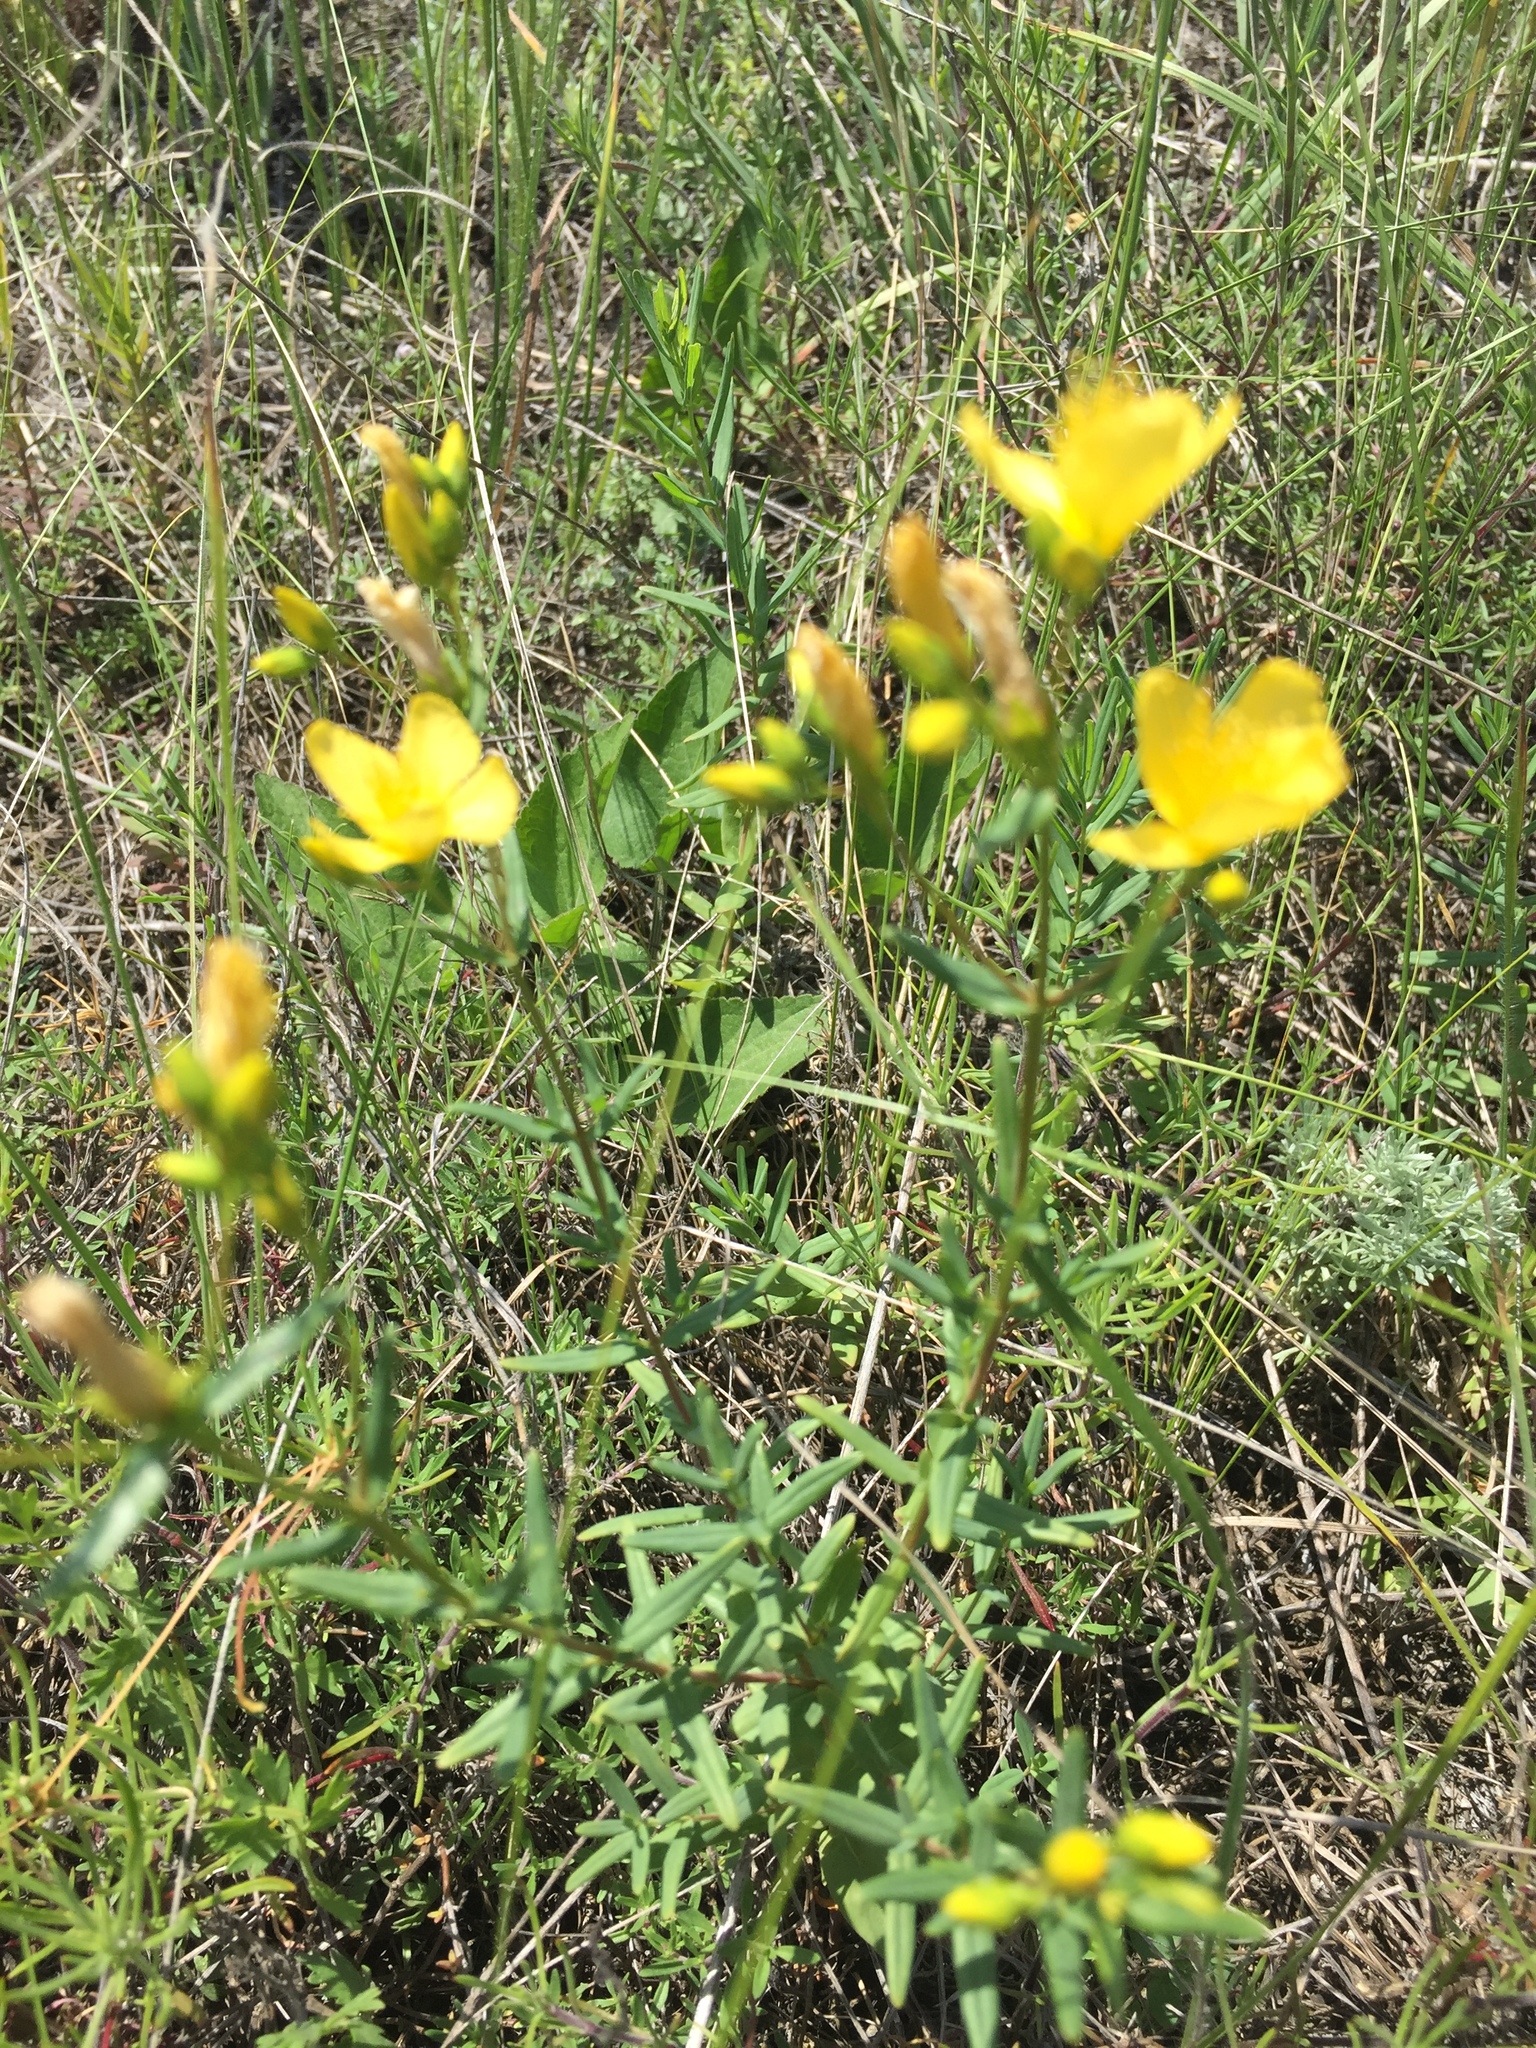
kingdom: Plantae
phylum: Tracheophyta
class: Magnoliopsida
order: Malpighiales
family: Hypericaceae
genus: Hypericum
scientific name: Hypericum elegans
